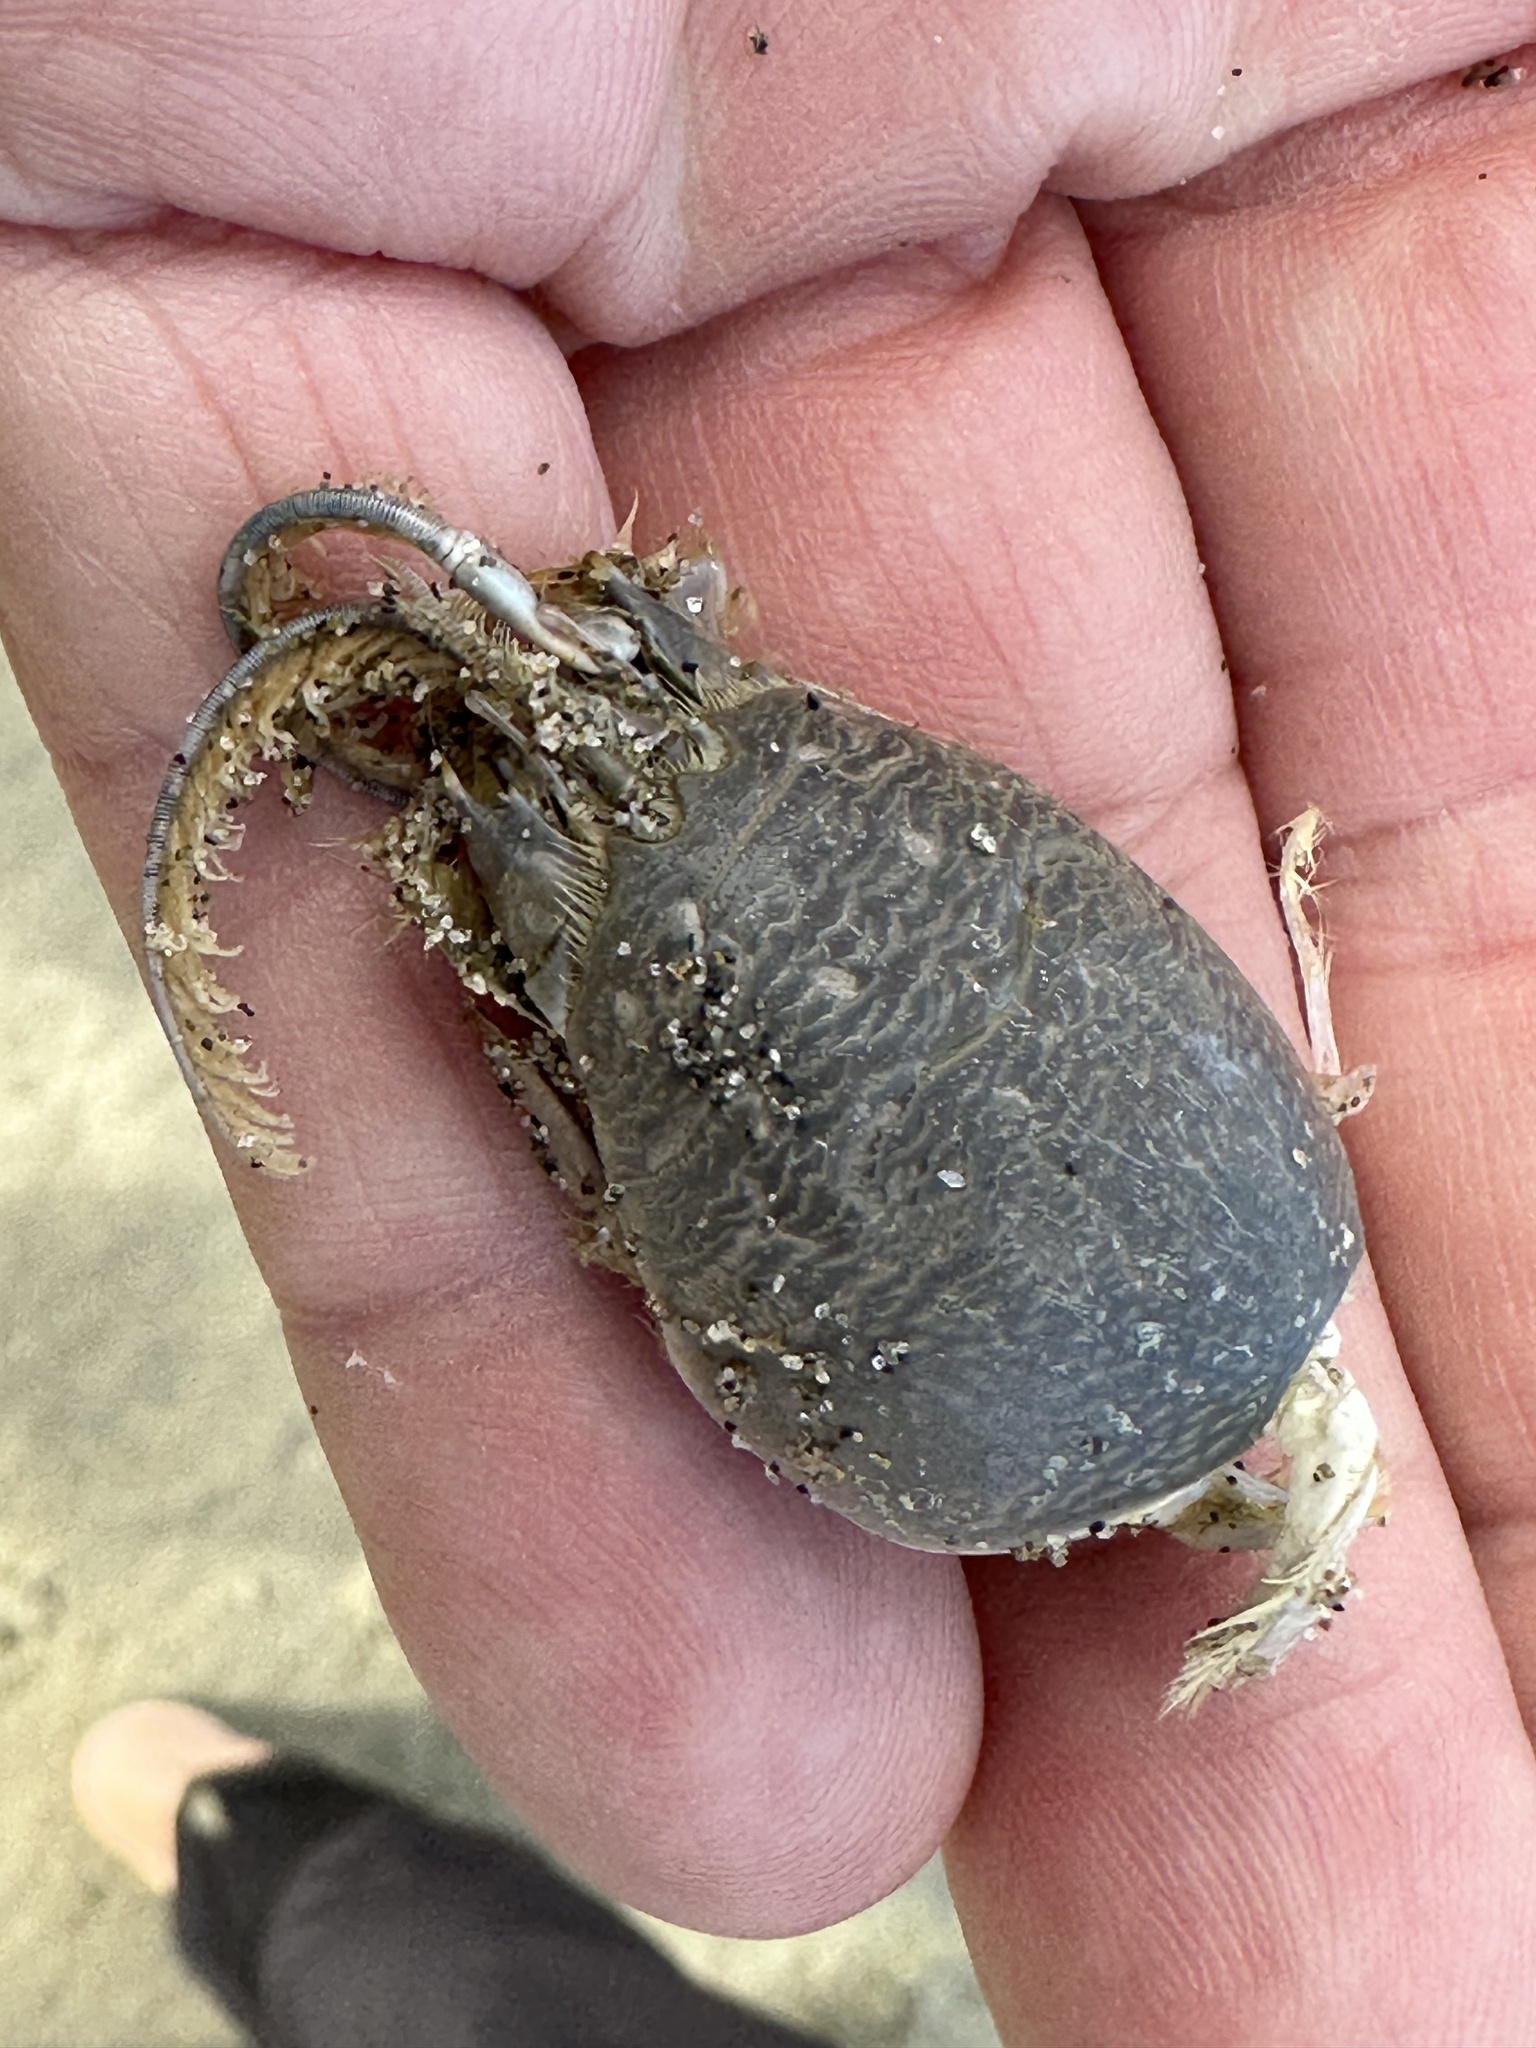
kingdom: Animalia
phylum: Arthropoda
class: Malacostraca
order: Decapoda
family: Hippidae
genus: Emerita
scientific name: Emerita analoga
